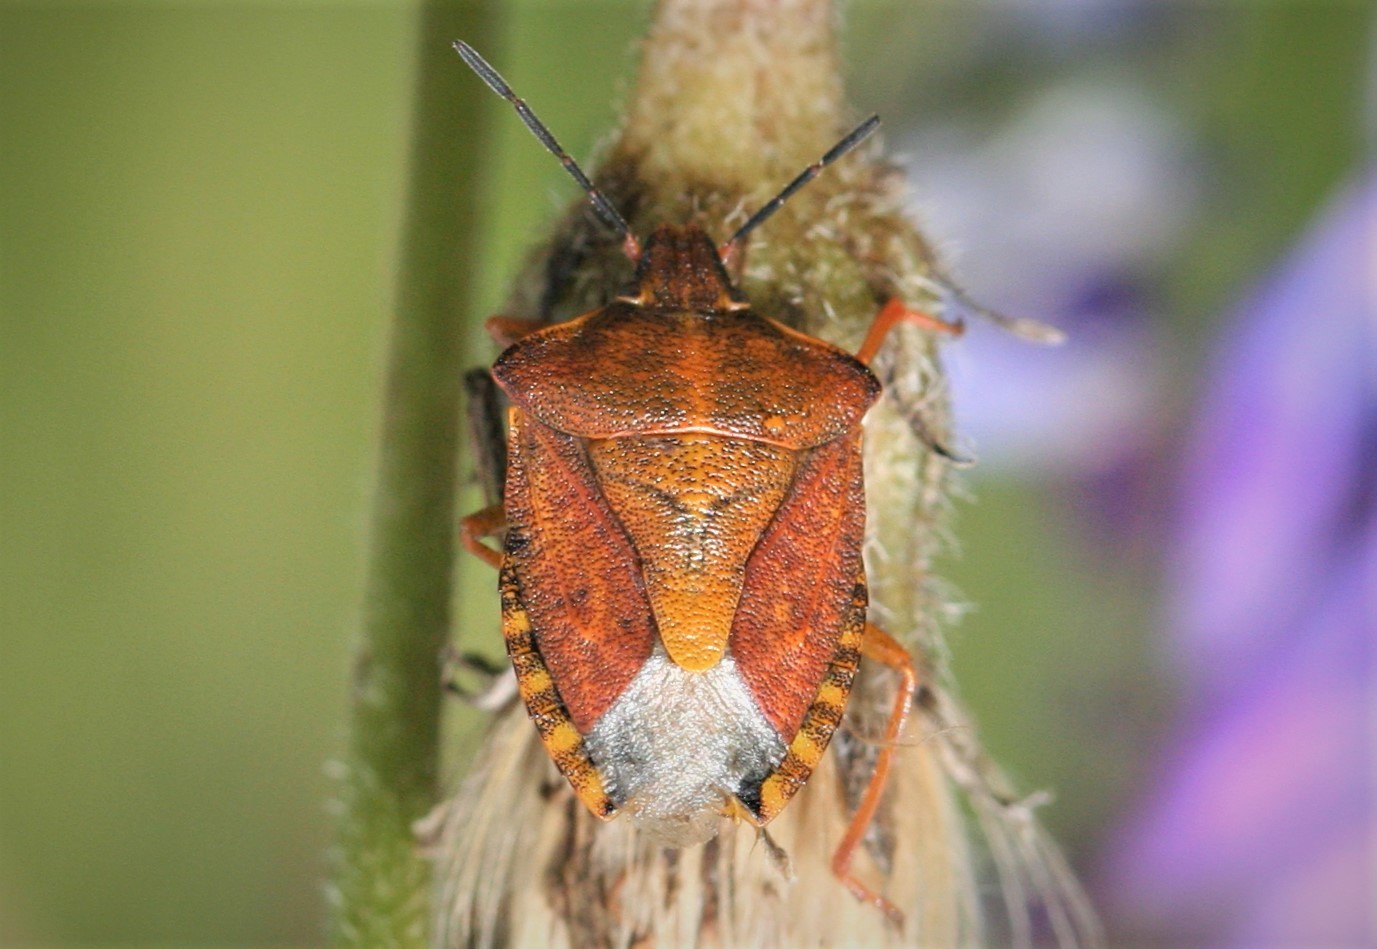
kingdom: Animalia
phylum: Arthropoda
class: Insecta
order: Hemiptera
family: Pentatomidae
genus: Carpocoris
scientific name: Carpocoris purpureipennis
